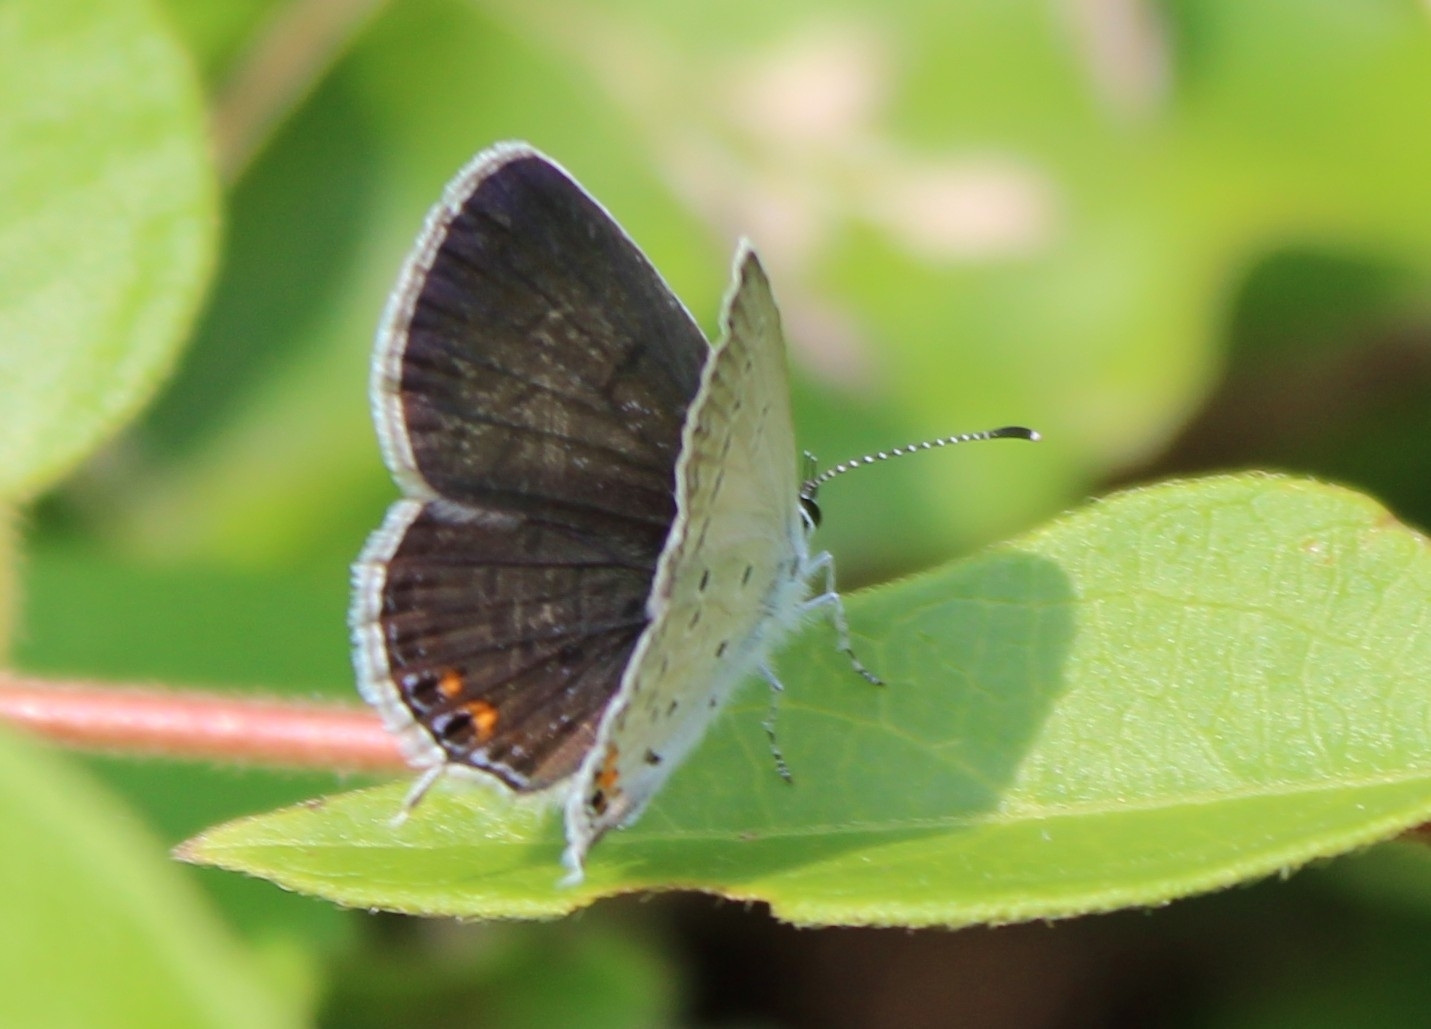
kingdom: Animalia
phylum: Arthropoda
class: Insecta
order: Lepidoptera
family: Lycaenidae
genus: Elkalyce
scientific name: Elkalyce comyntas
